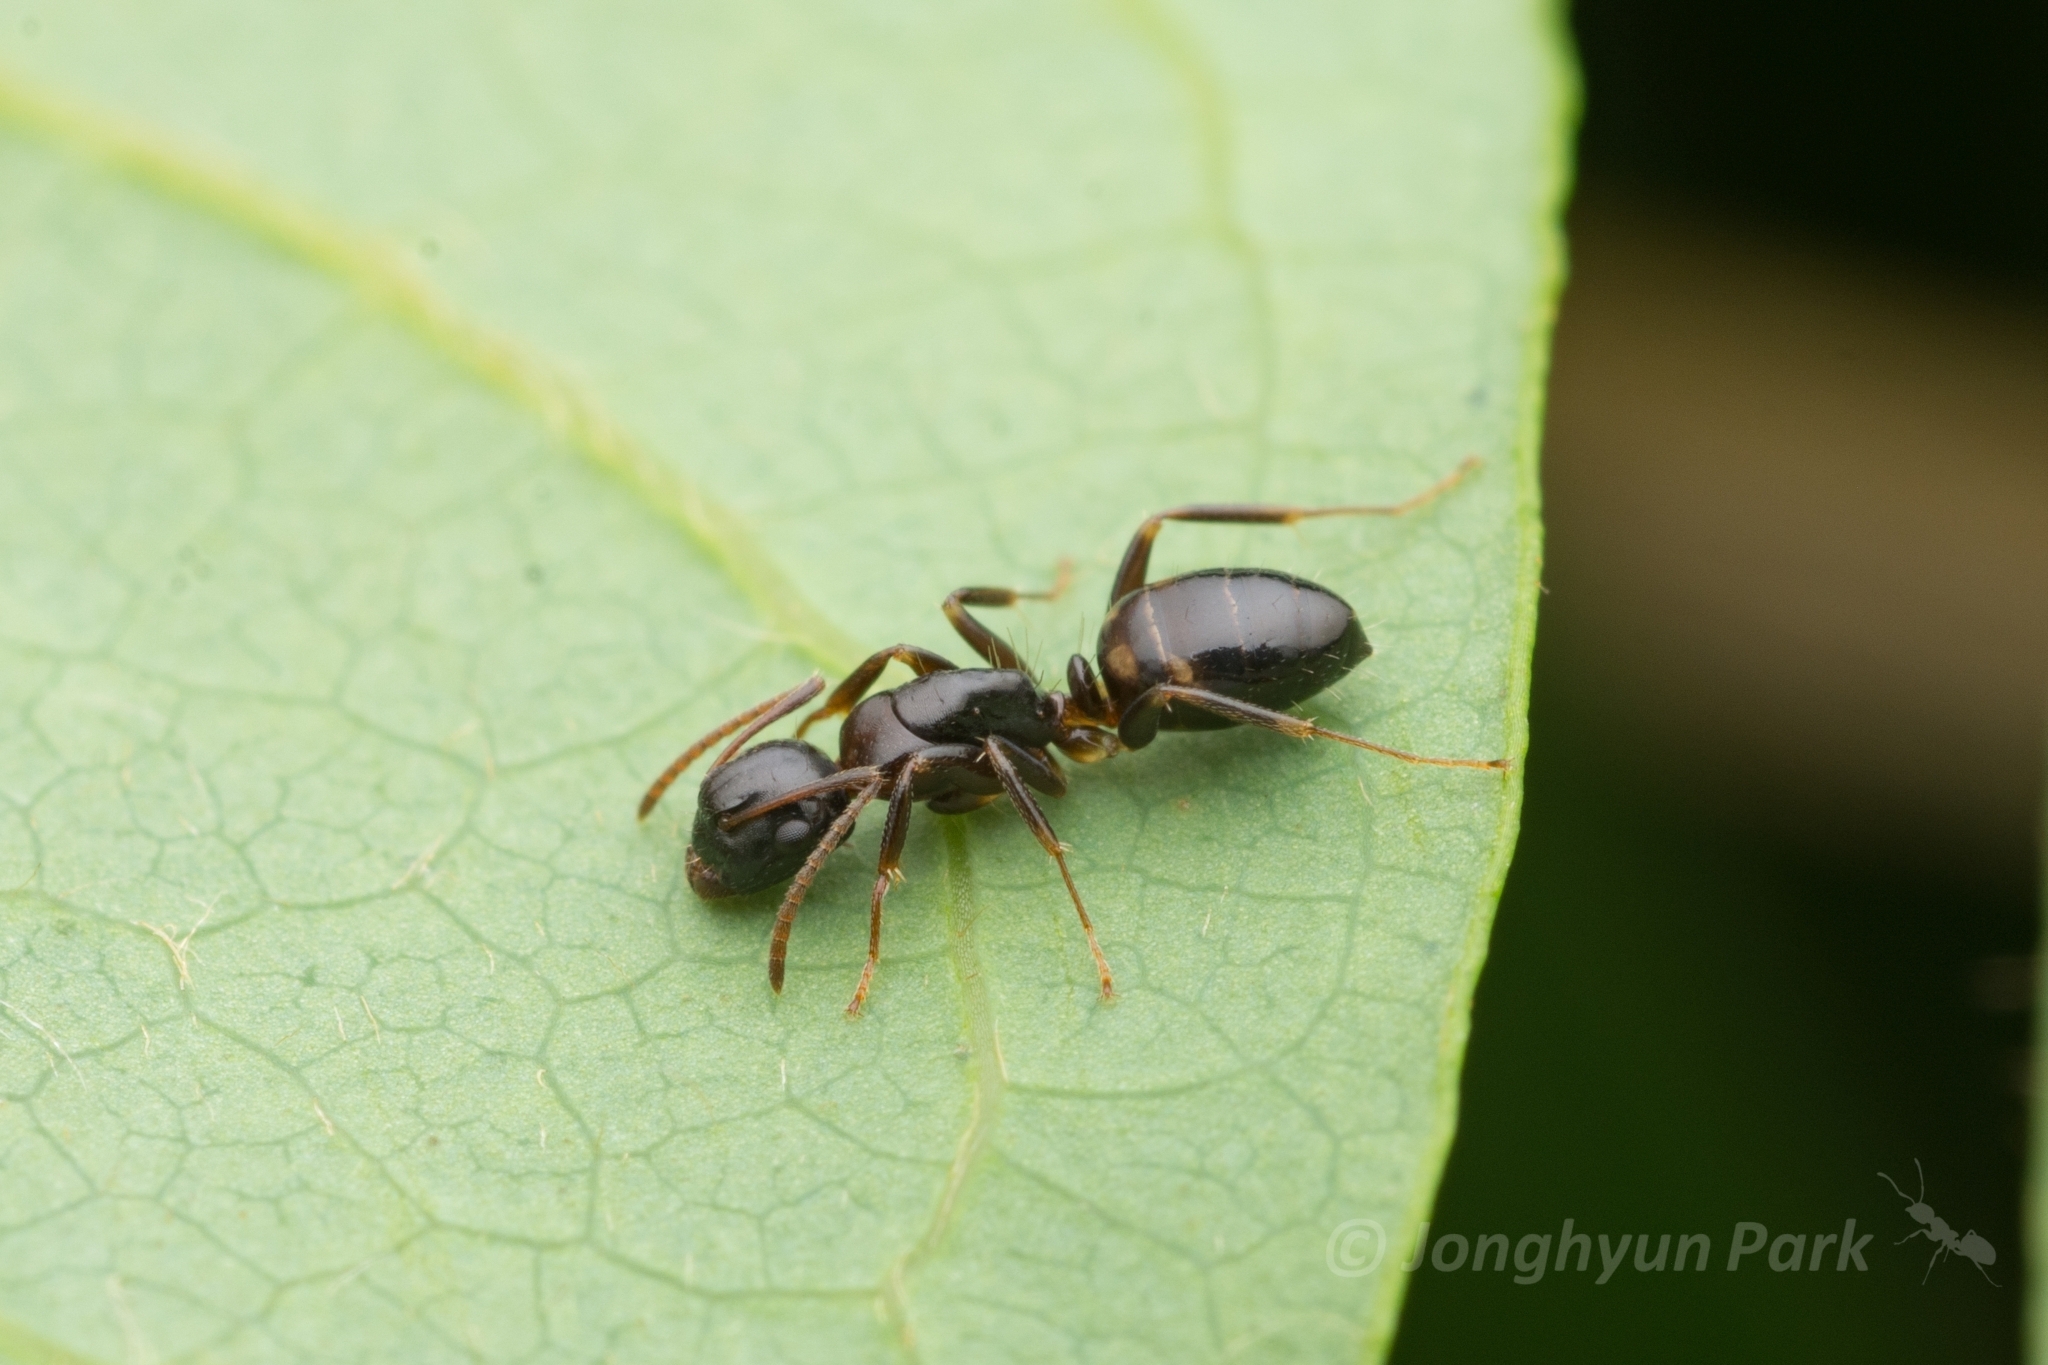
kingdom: Animalia
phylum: Arthropoda
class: Insecta
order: Hymenoptera
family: Formicidae
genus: Camponotus
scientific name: Camponotus yamaokai
